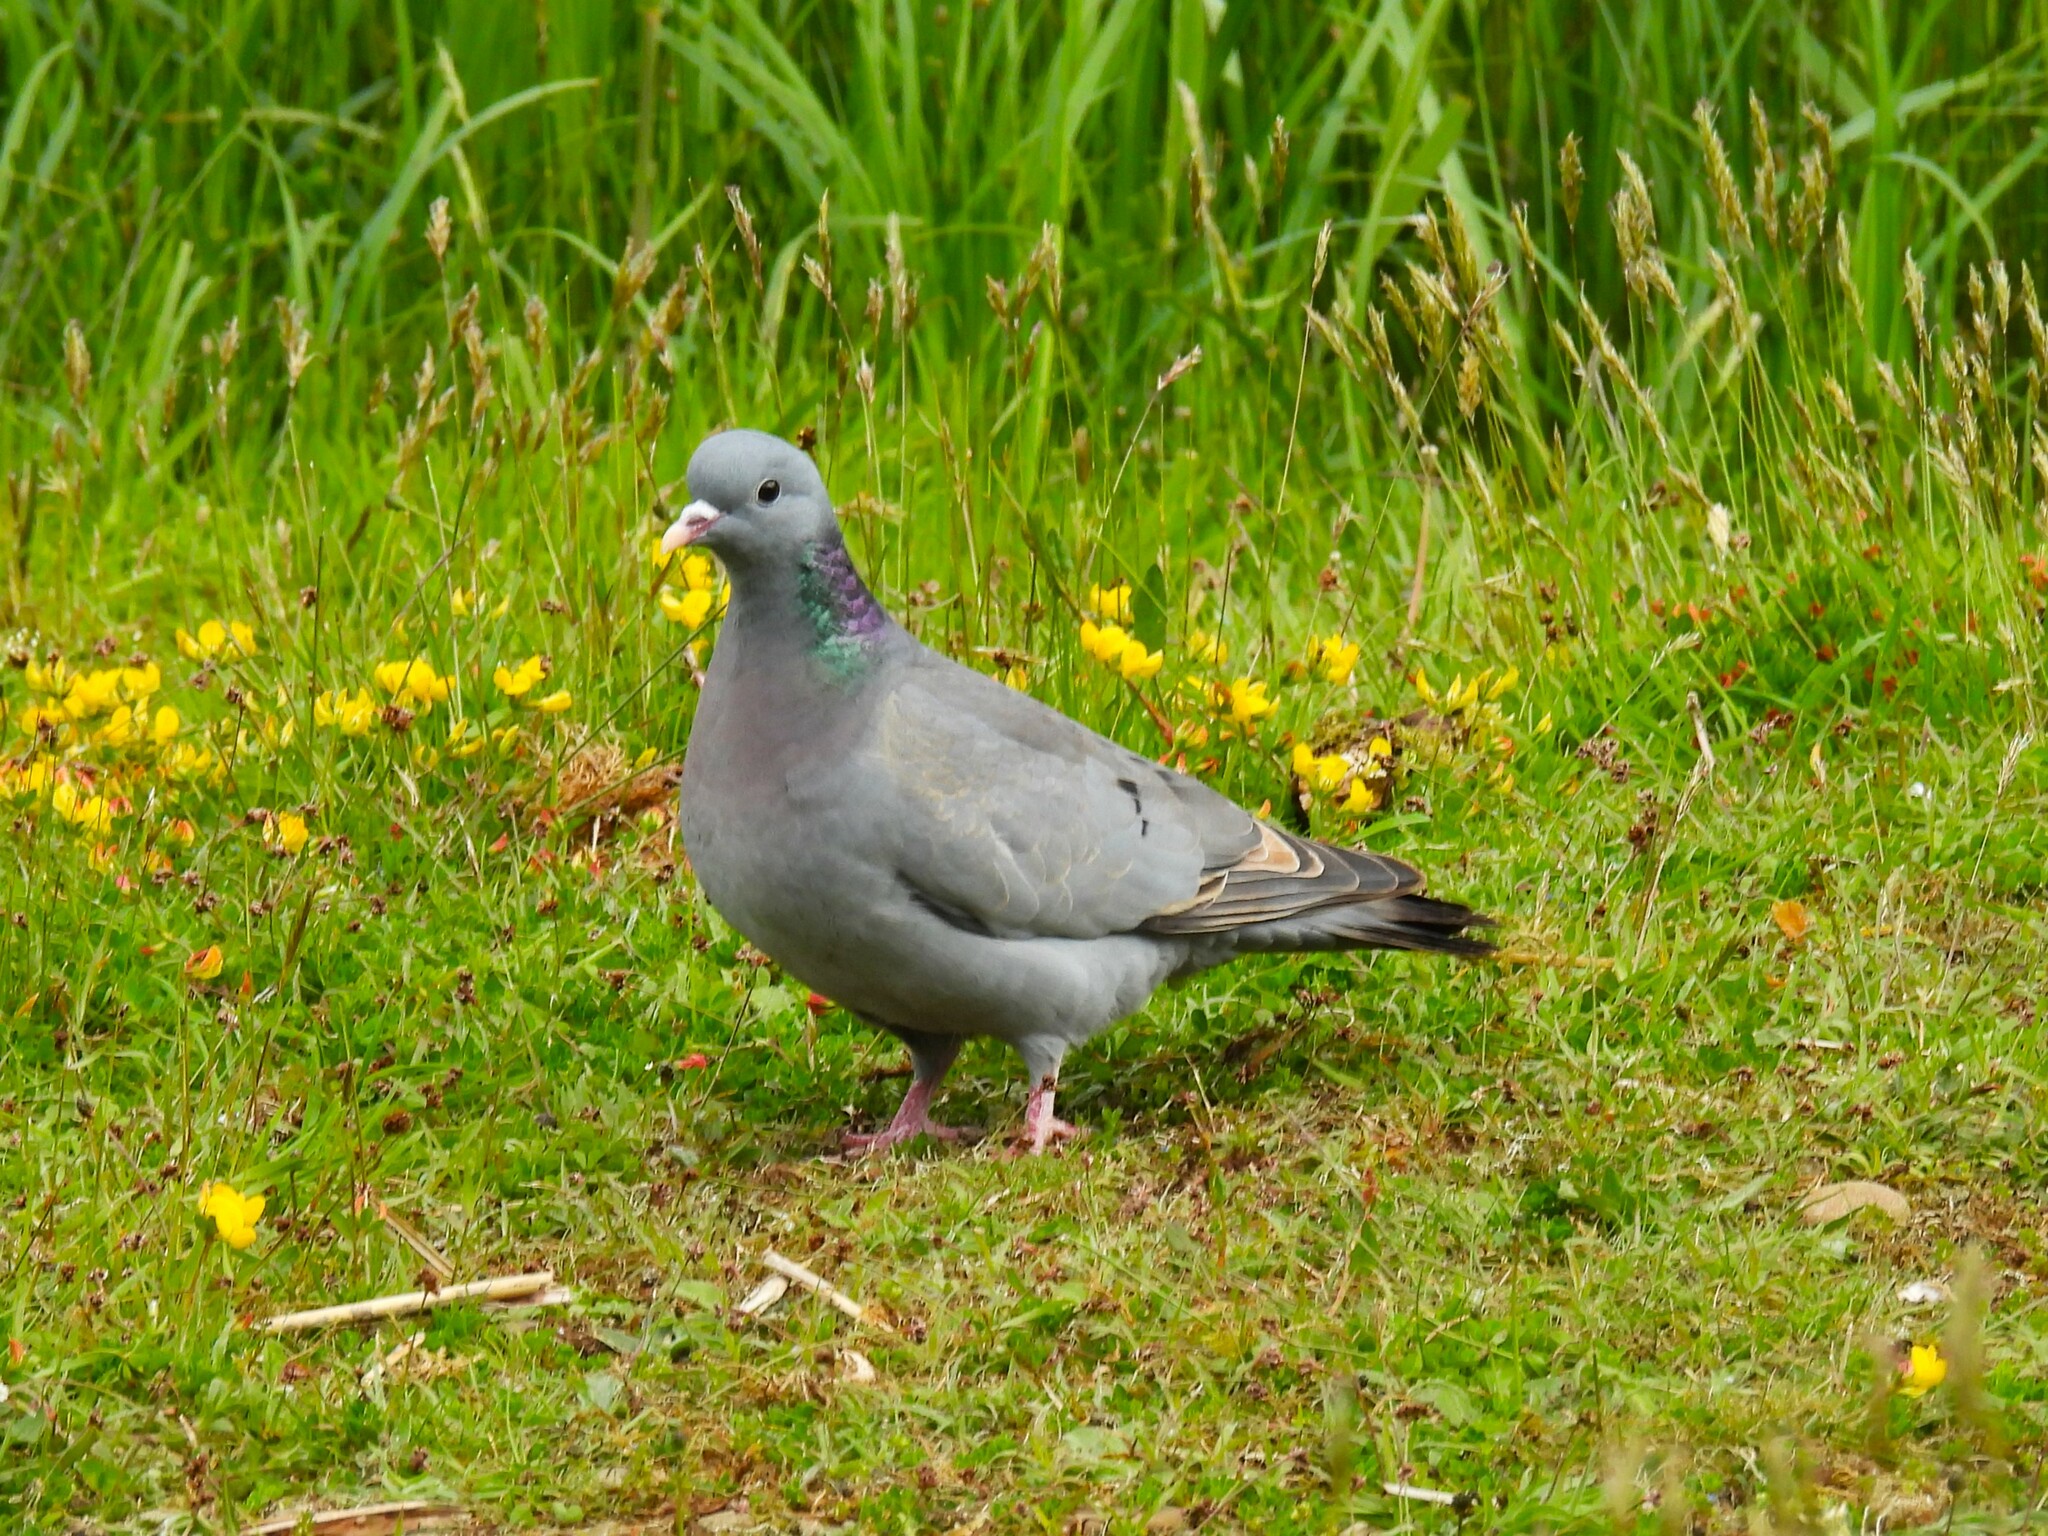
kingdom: Animalia
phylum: Chordata
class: Aves
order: Columbiformes
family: Columbidae
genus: Columba
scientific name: Columba oenas
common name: Stock dove
